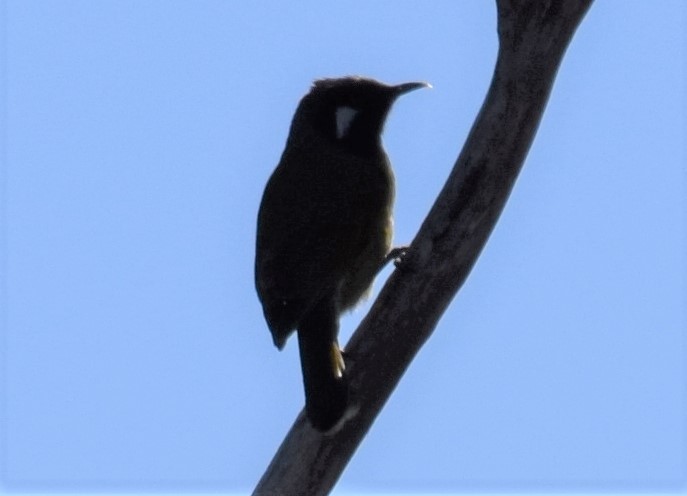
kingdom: Animalia
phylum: Chordata
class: Aves
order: Passeriformes
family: Meliphagidae
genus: Nesoptilotis
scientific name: Nesoptilotis leucotis
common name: White-eared honeyeater
